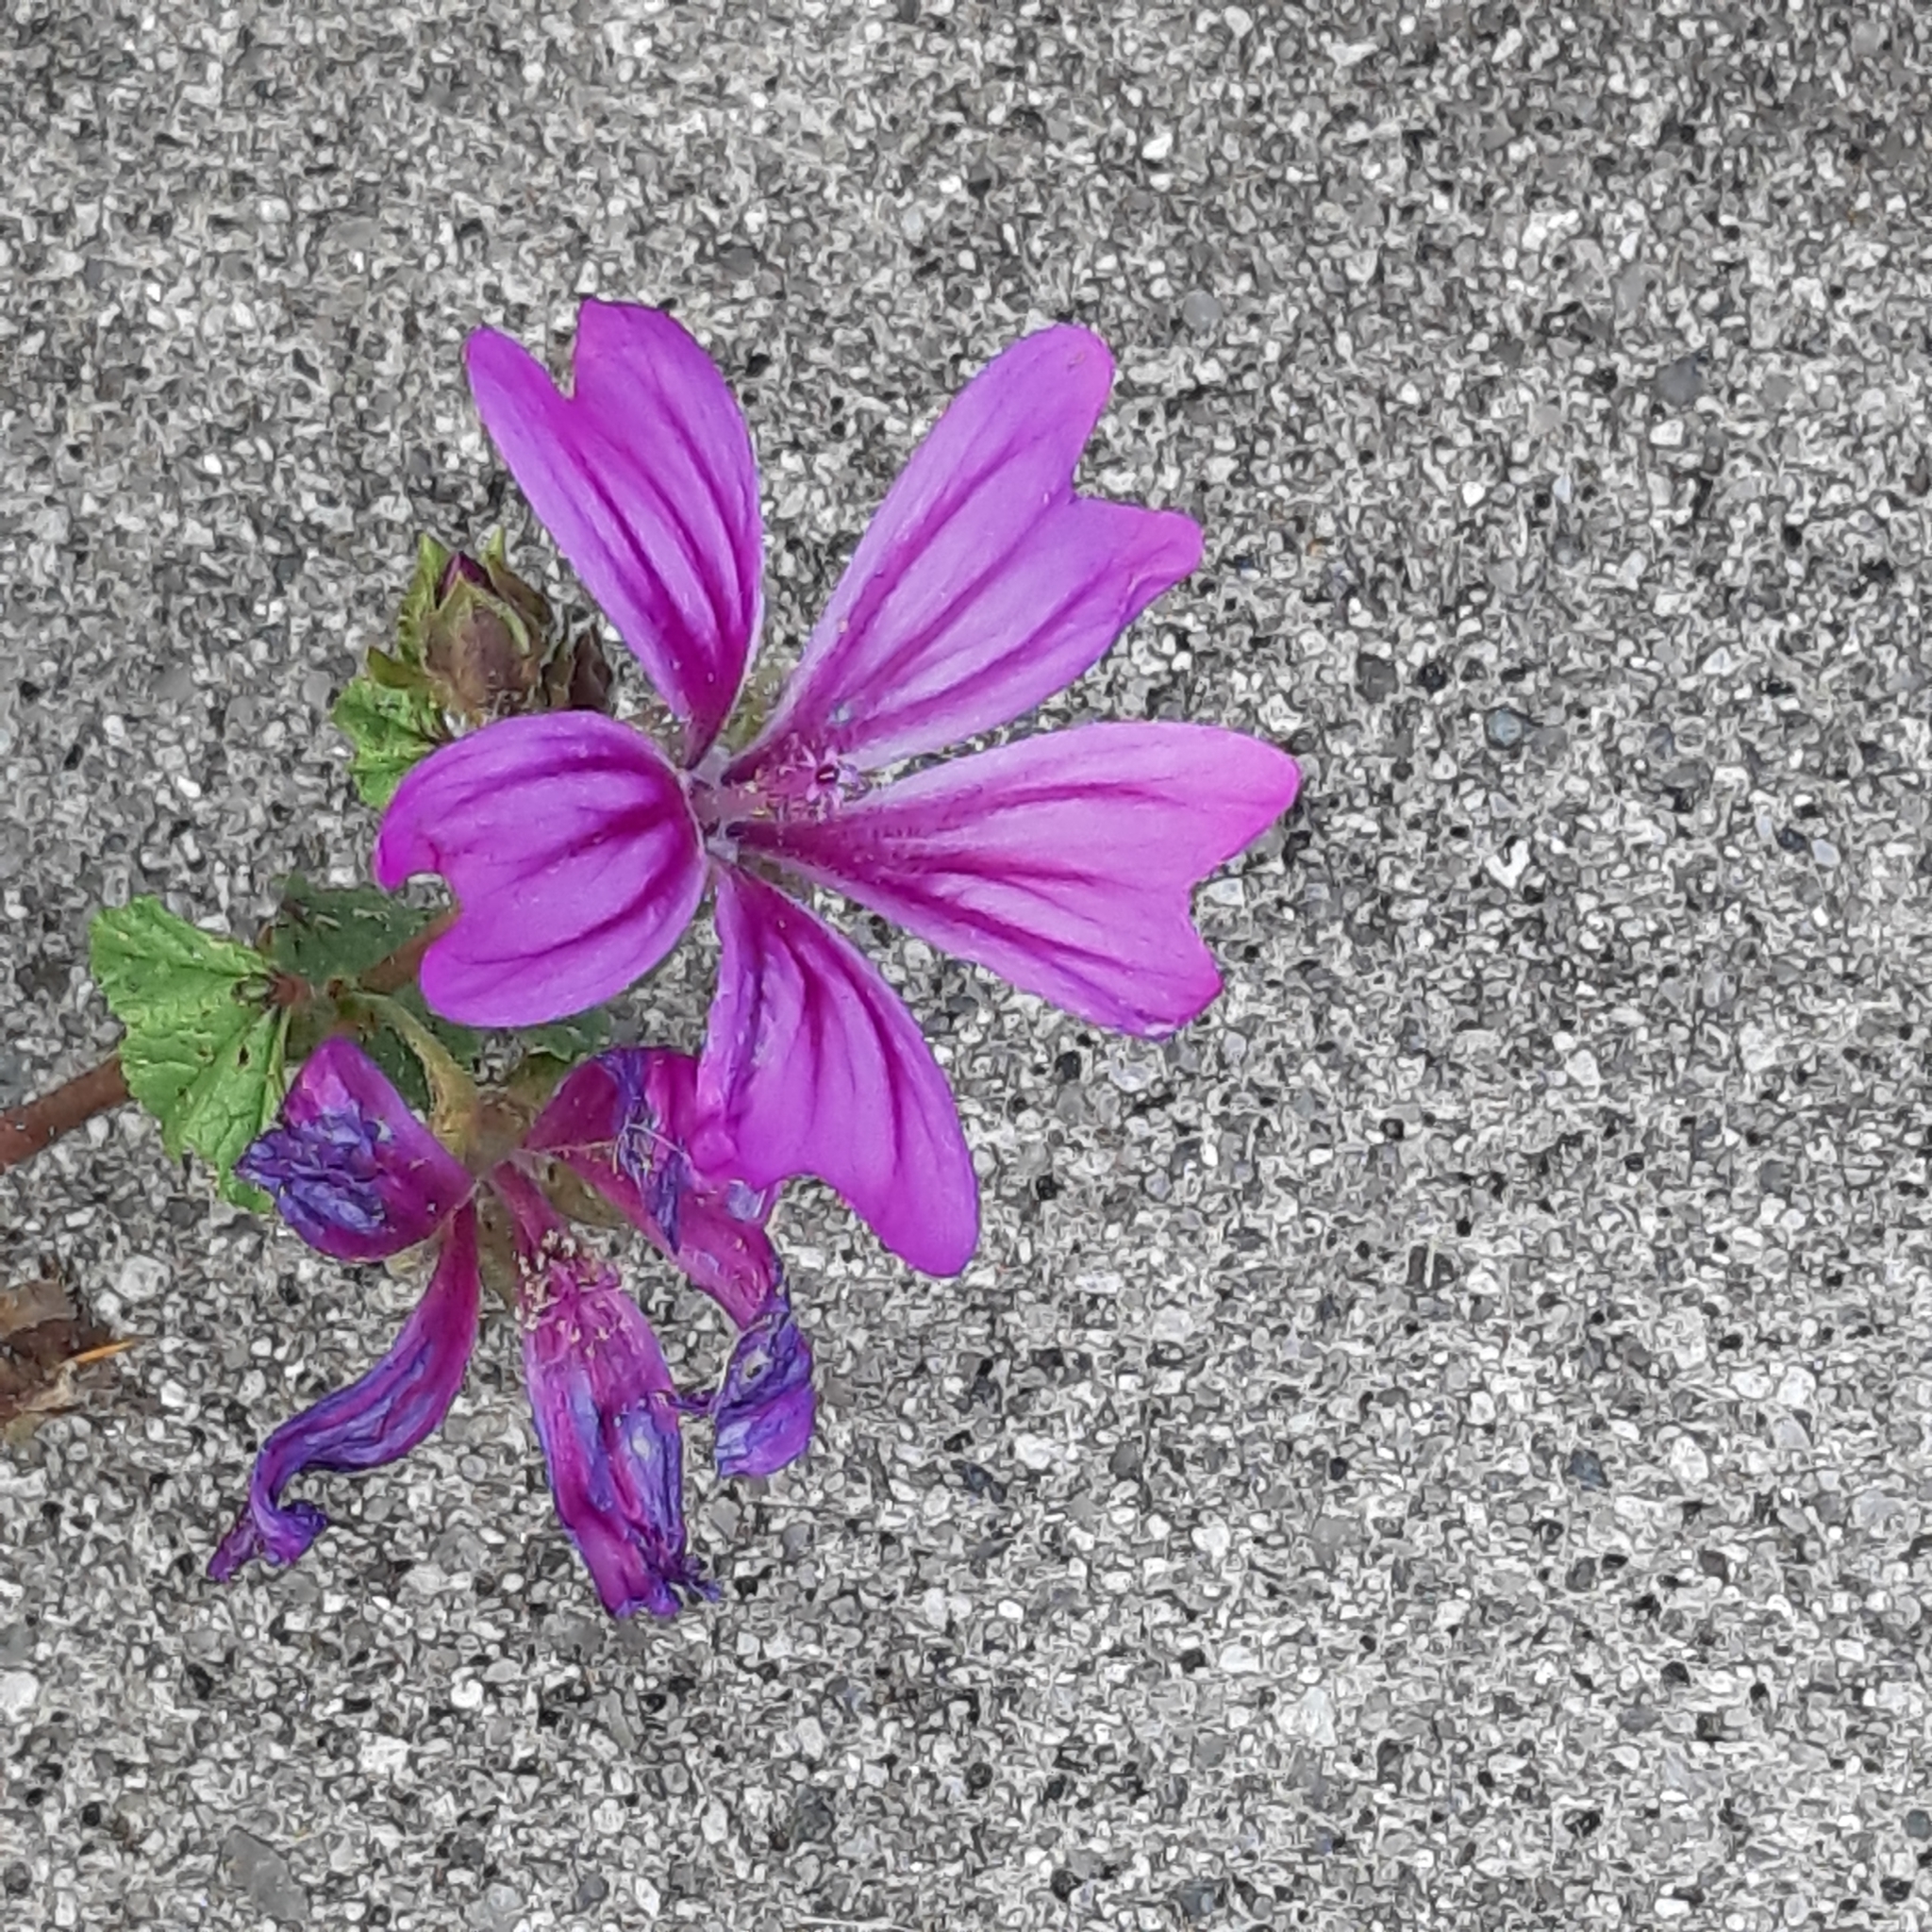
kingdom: Plantae
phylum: Tracheophyta
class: Magnoliopsida
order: Malvales
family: Malvaceae
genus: Malva
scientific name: Malva sylvestris
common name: Common mallow
